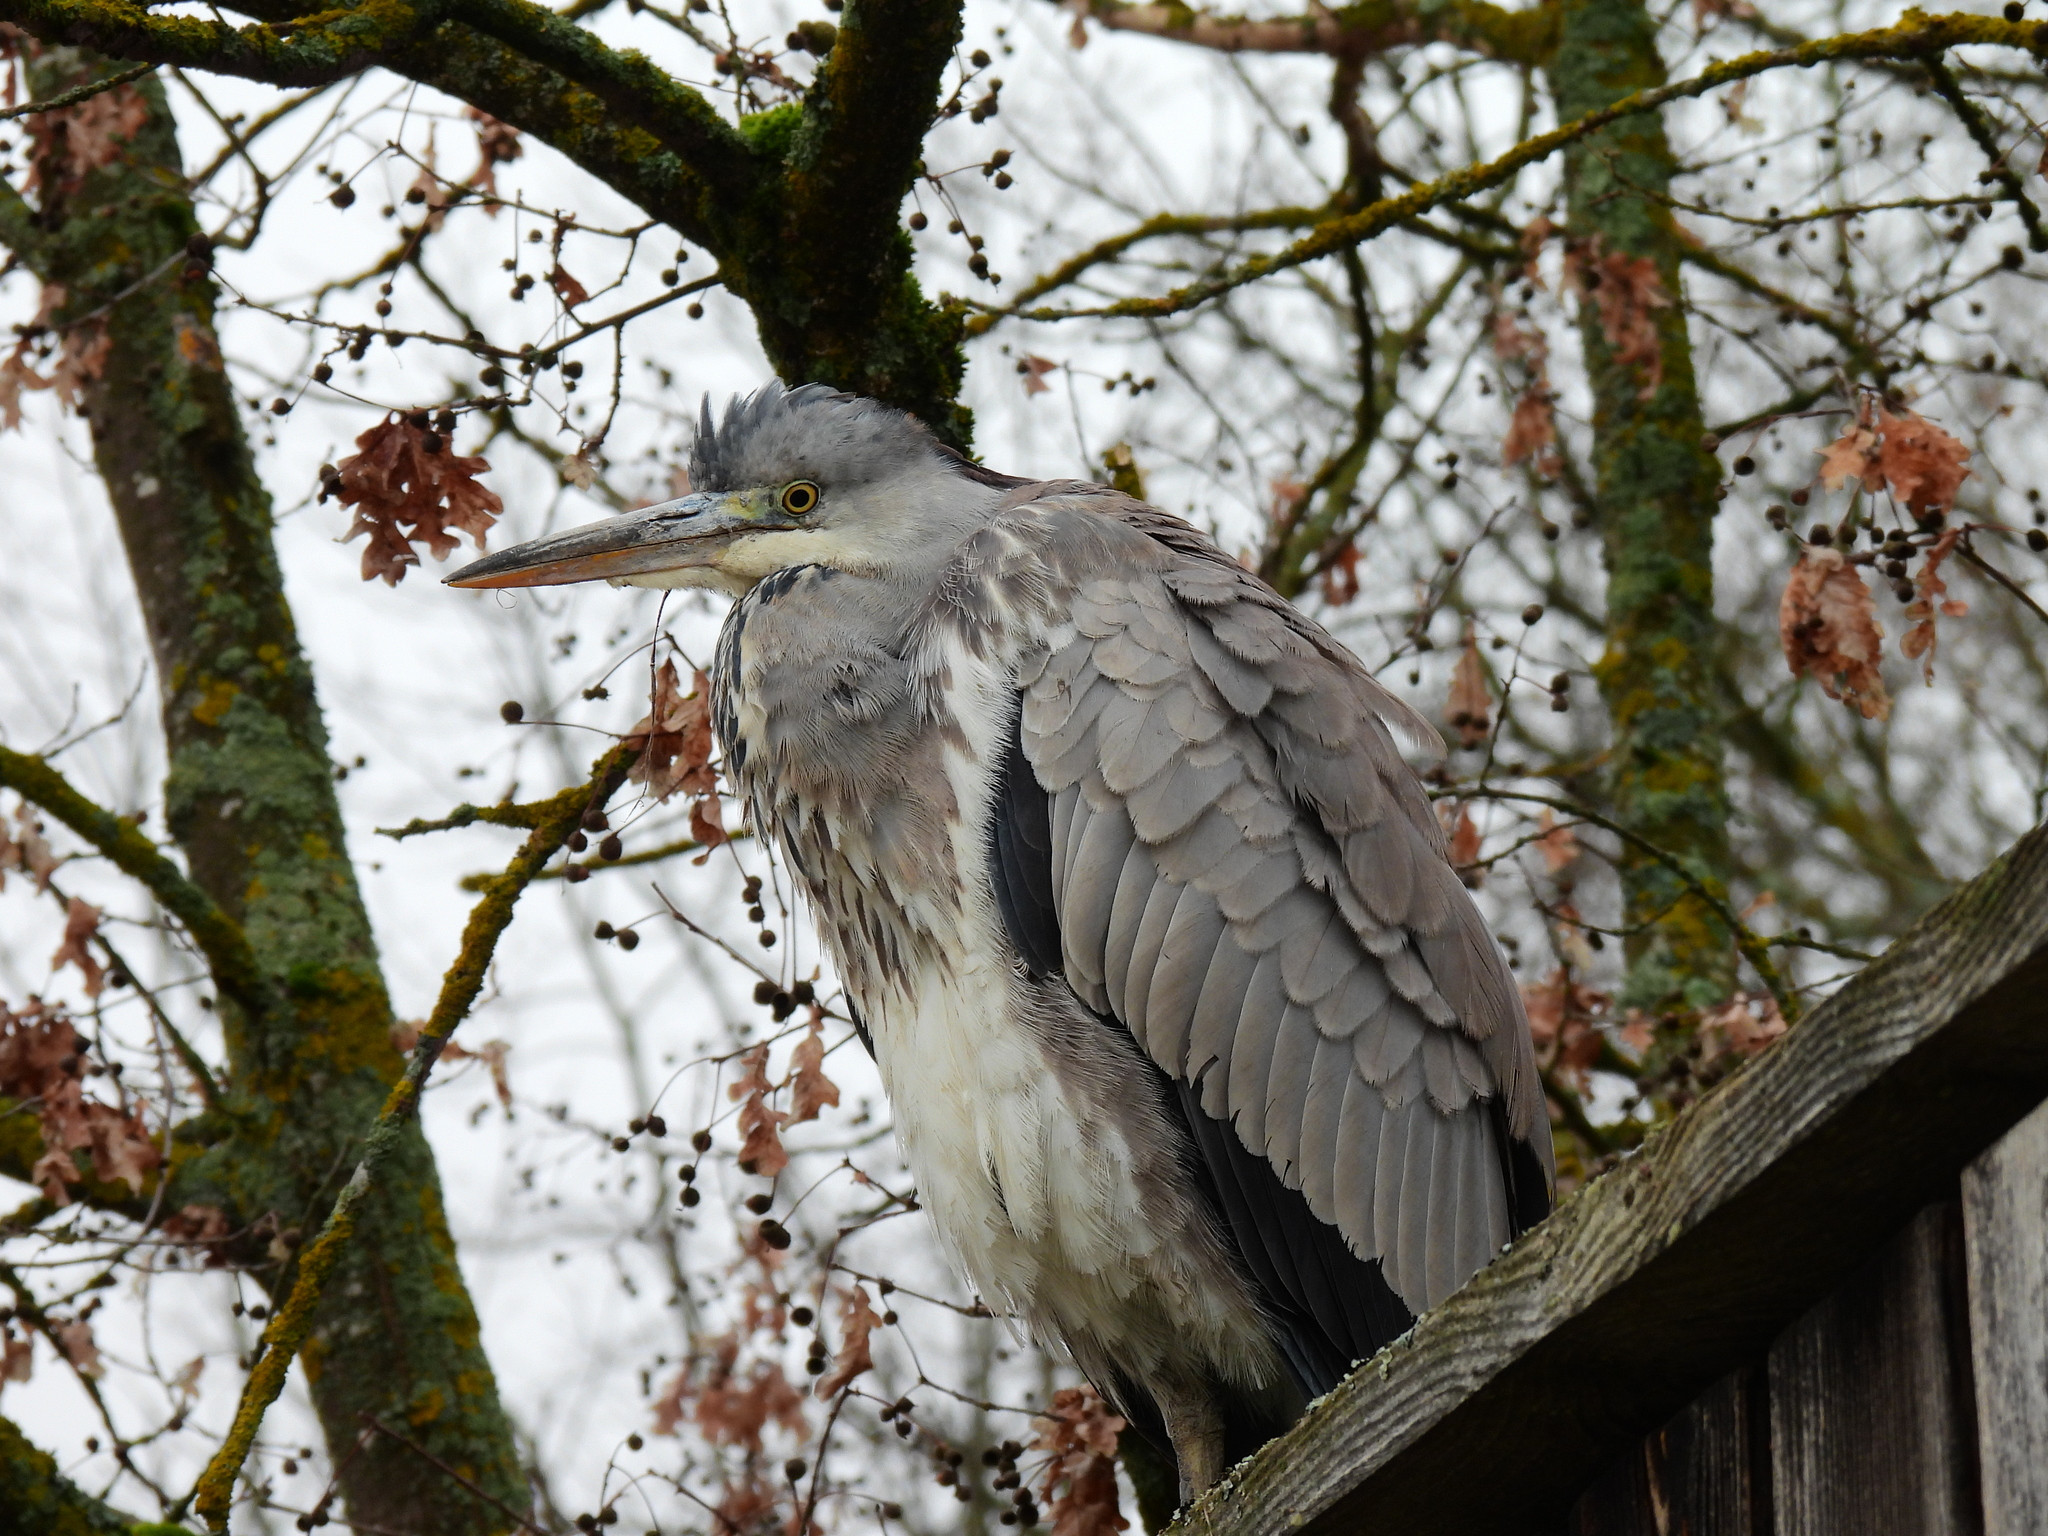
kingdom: Animalia
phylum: Chordata
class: Aves
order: Pelecaniformes
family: Ardeidae
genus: Ardea
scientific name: Ardea cinerea
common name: Grey heron
